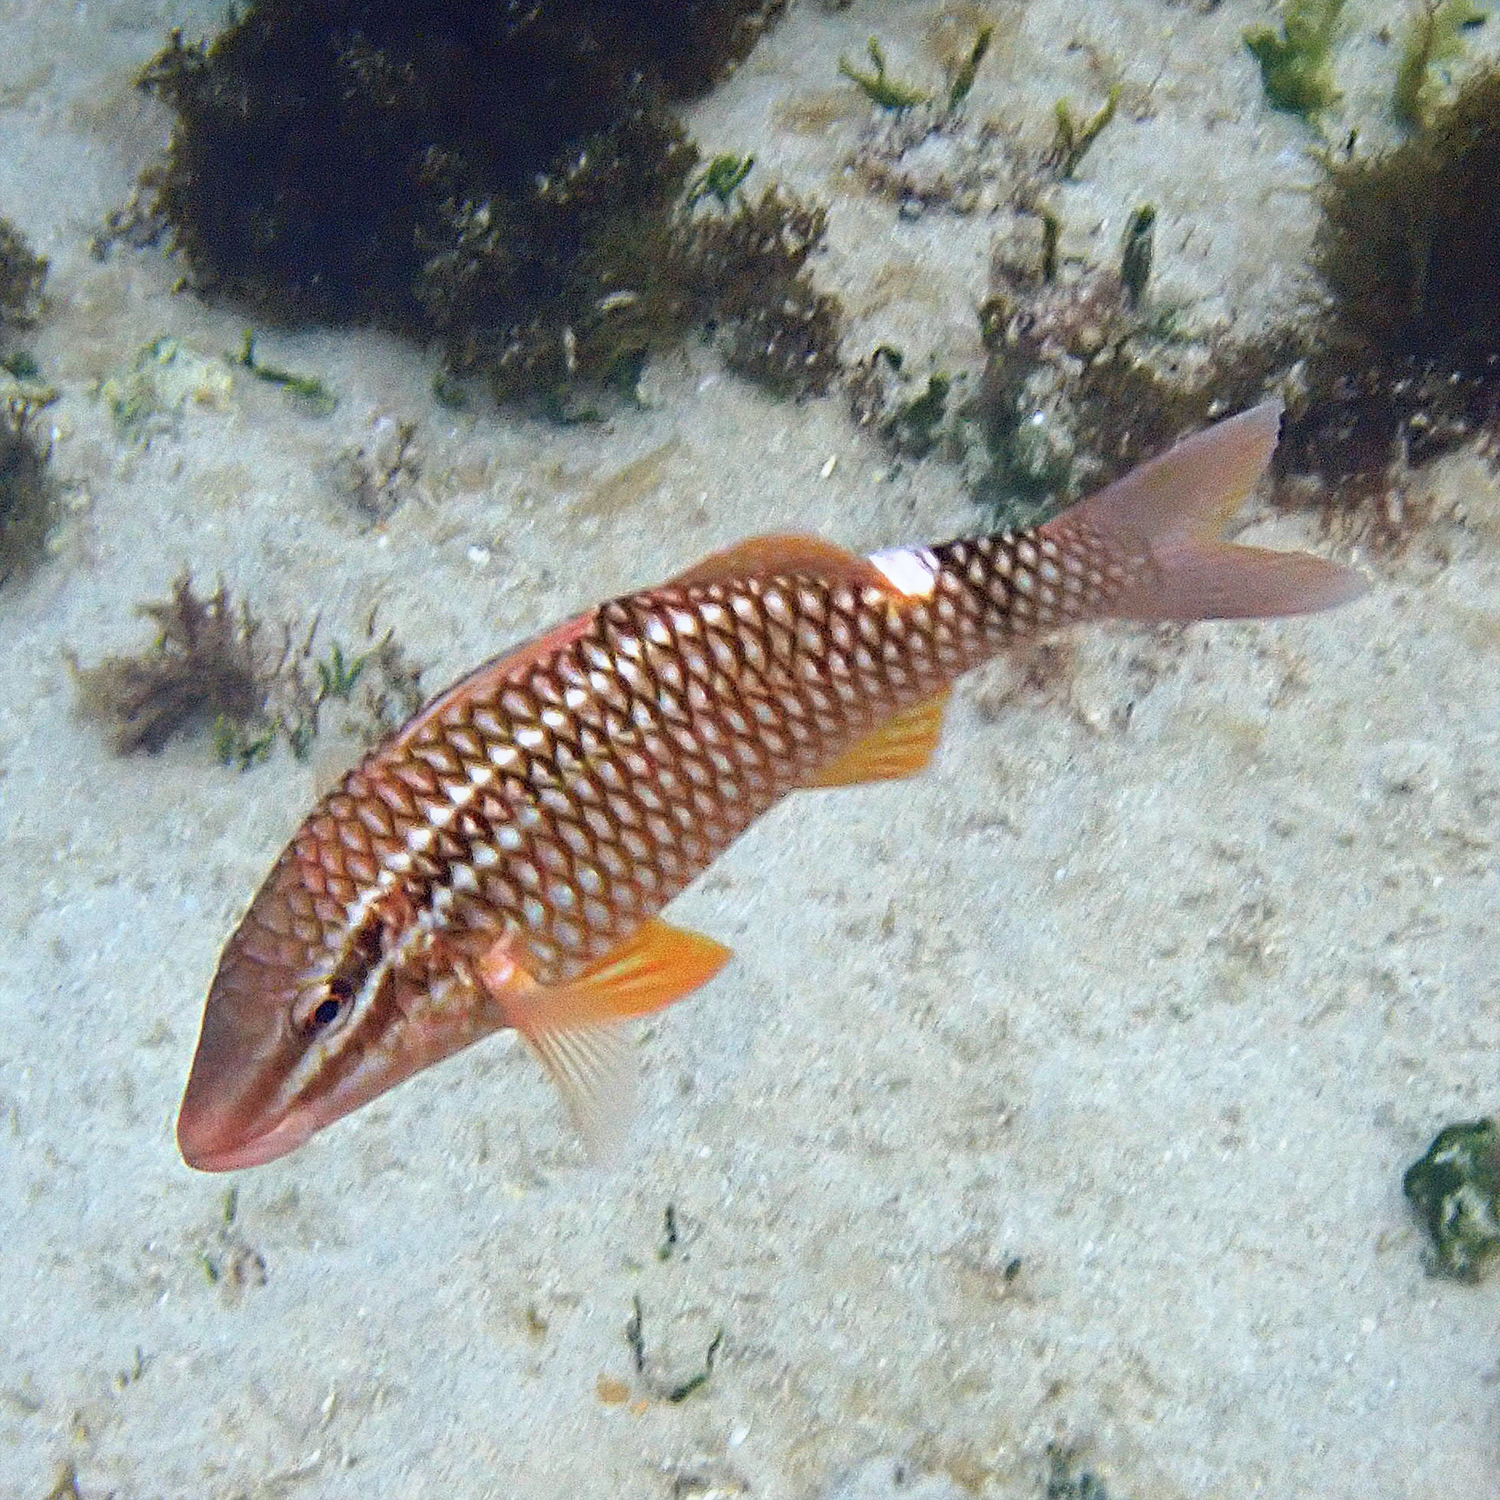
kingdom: Animalia
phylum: Chordata
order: Perciformes
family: Mullidae
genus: Parupeneus
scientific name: Parupeneus ciliatus
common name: White-lined goatfish
